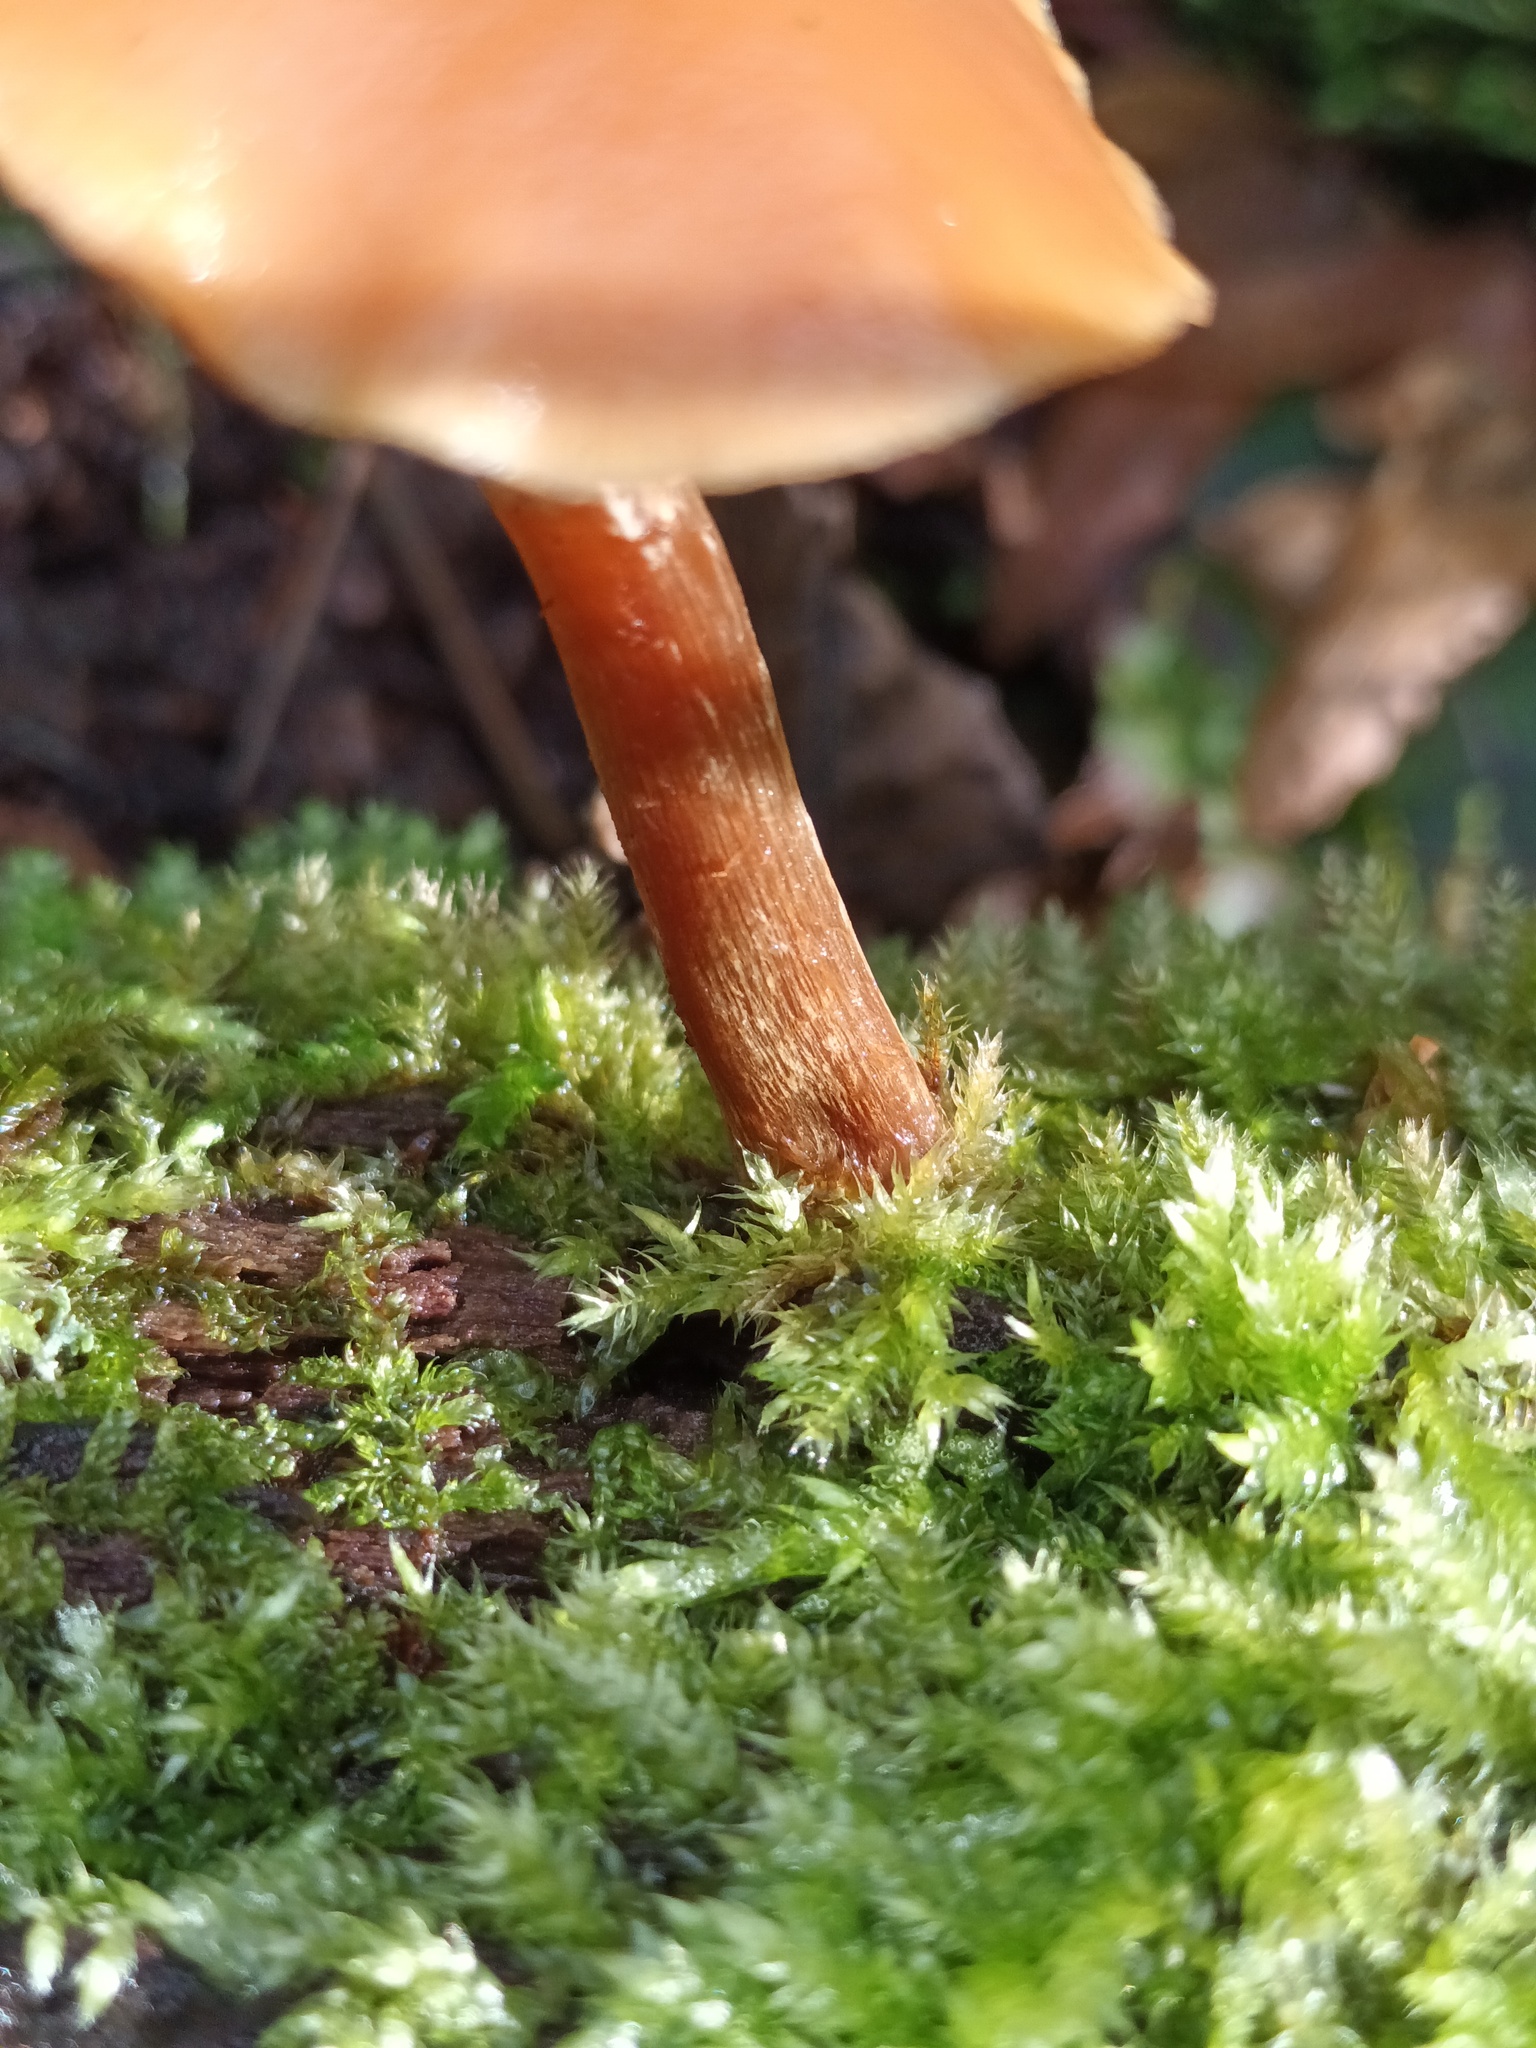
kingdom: Fungi
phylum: Basidiomycota
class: Agaricomycetes
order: Agaricales
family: Hymenogastraceae
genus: Galerina
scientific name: Galerina marginata
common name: Funeral bell
